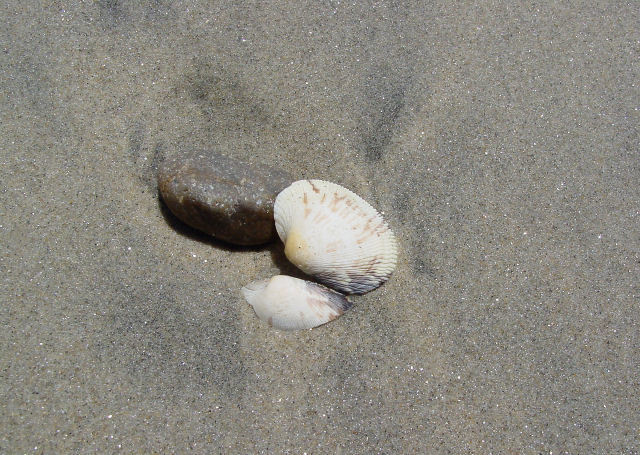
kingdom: Animalia
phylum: Mollusca
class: Bivalvia
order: Venerida
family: Veneridae
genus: Ruditapes
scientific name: Ruditapes philippinarum
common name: Manila clam
